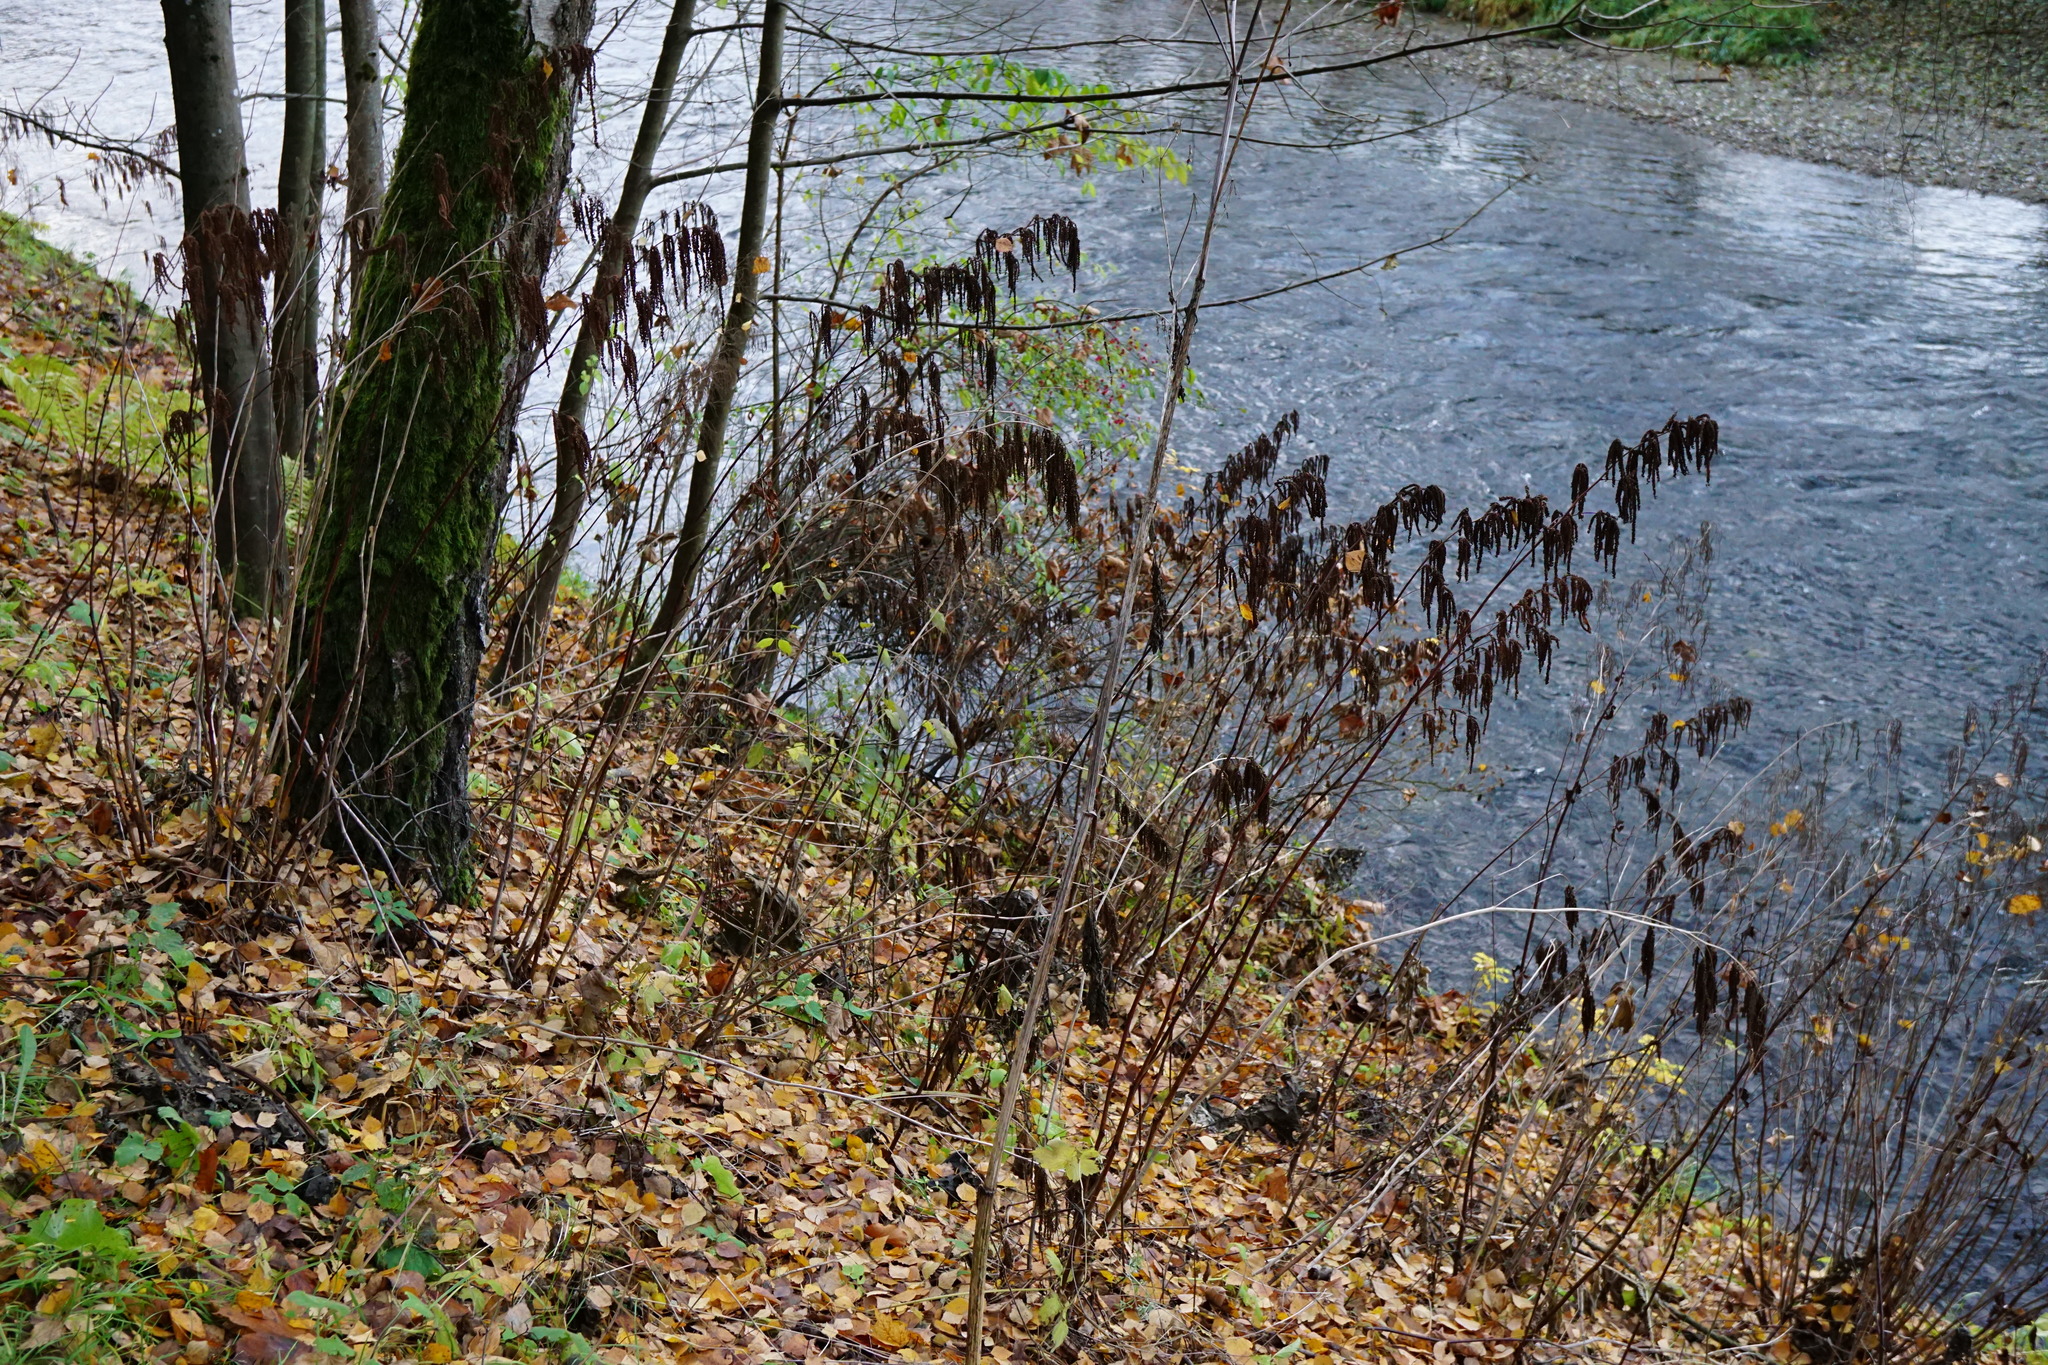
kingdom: Plantae
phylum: Tracheophyta
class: Magnoliopsida
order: Rosales
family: Rosaceae
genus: Aruncus
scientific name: Aruncus dioicus
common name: Buck's-beard
